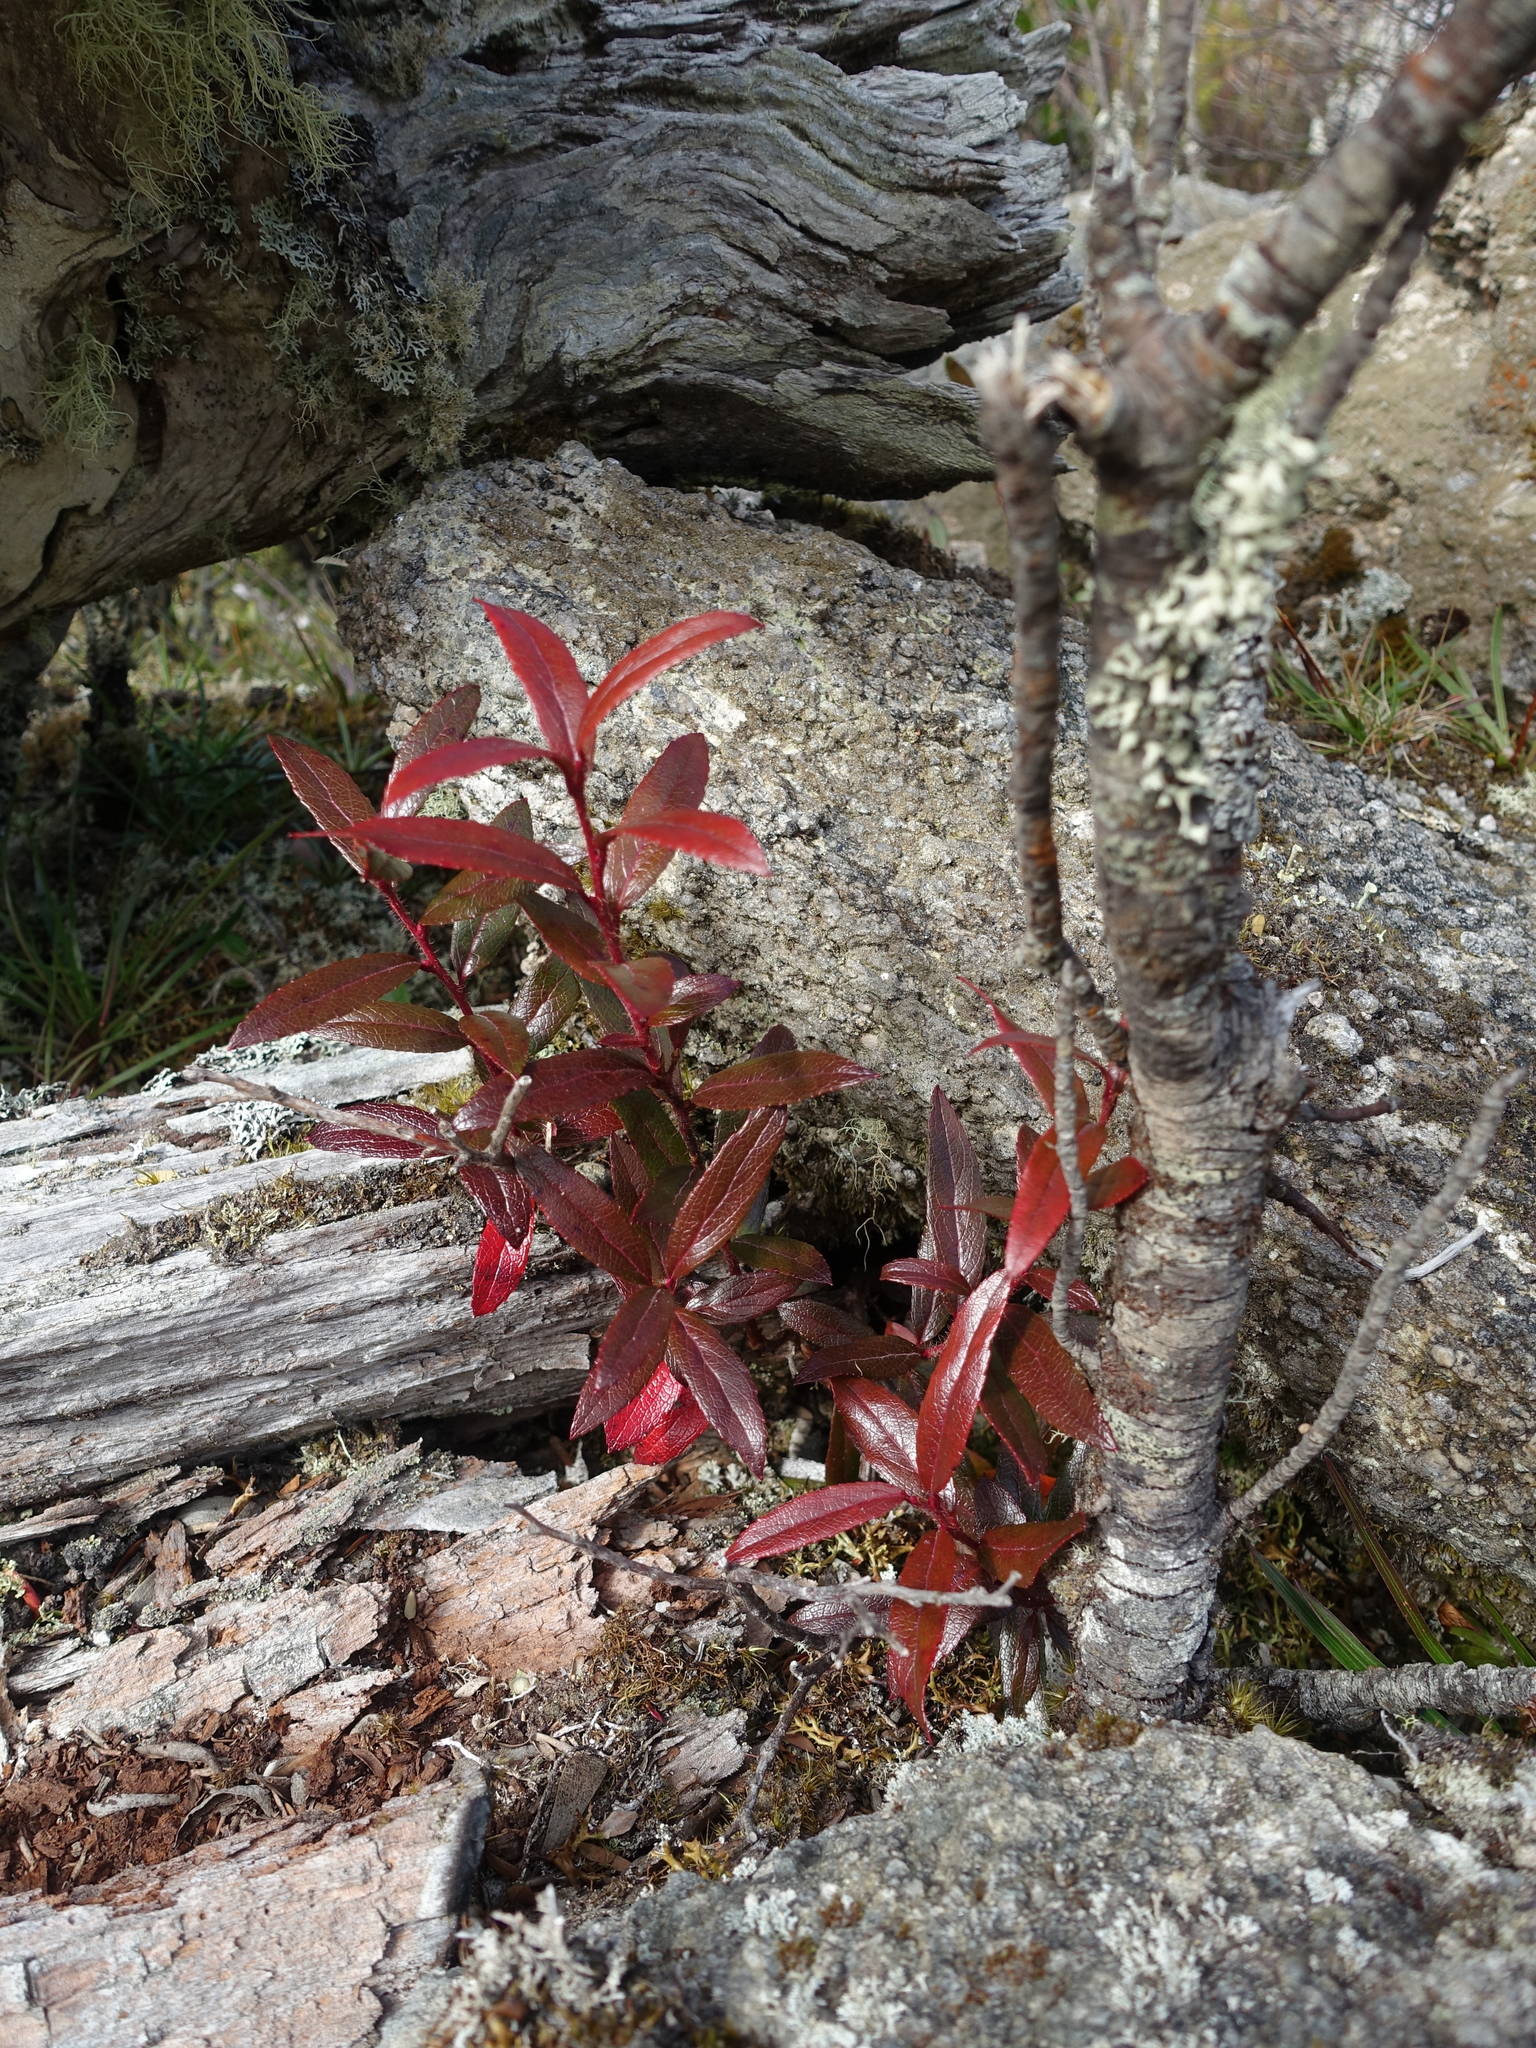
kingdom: Plantae
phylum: Tracheophyta
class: Magnoliopsida
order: Ericales
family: Ericaceae
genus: Gaultheria
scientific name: Gaultheria hispida
